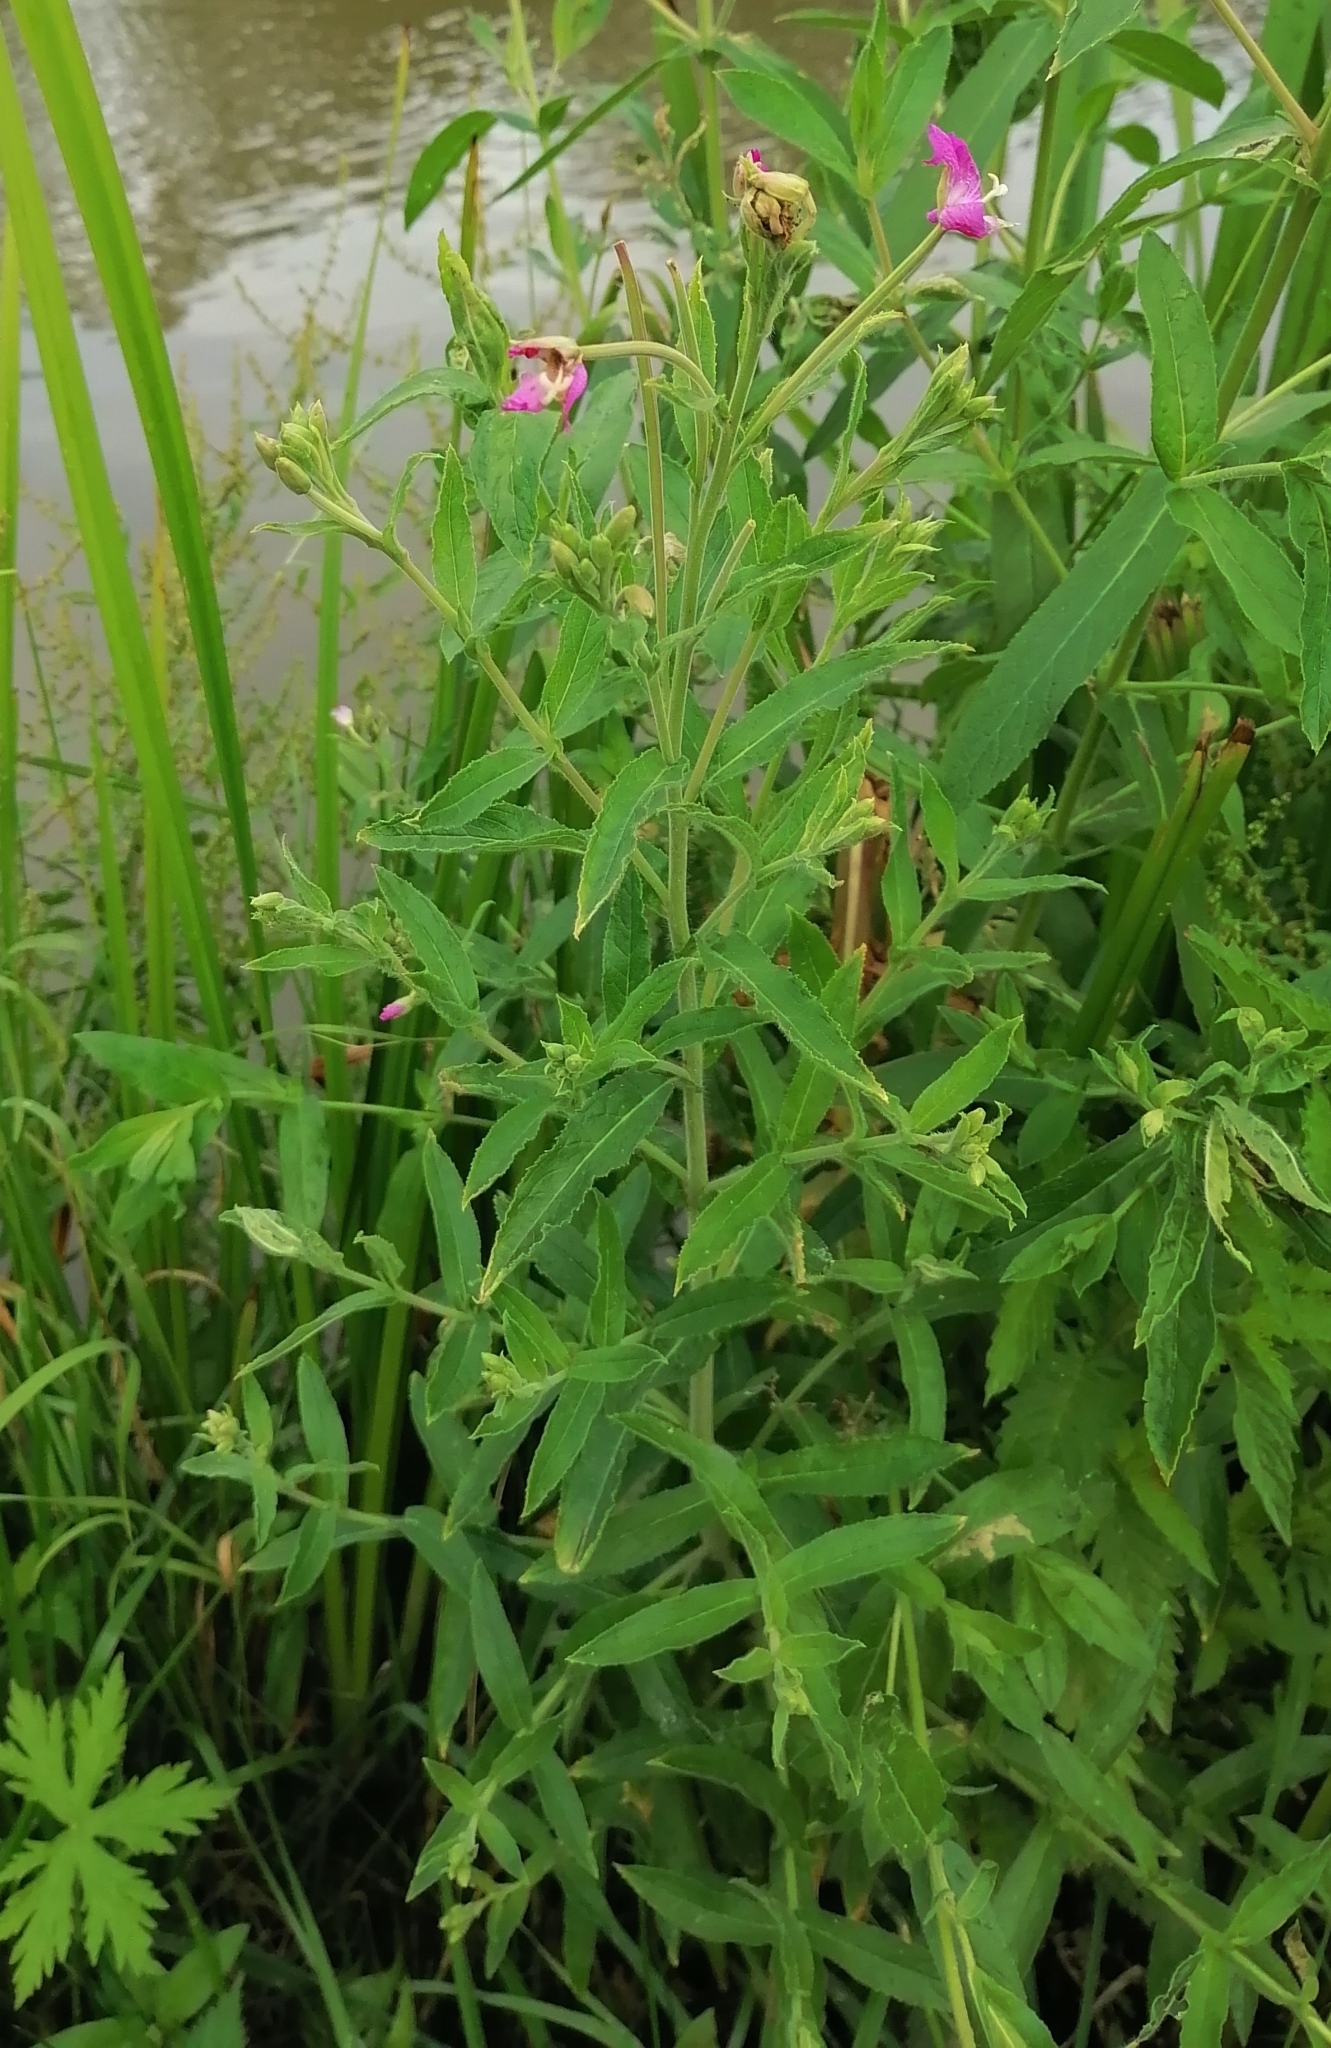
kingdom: Plantae
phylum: Tracheophyta
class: Magnoliopsida
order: Myrtales
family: Onagraceae
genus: Epilobium
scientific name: Epilobium hirsutum
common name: Great willowherb
